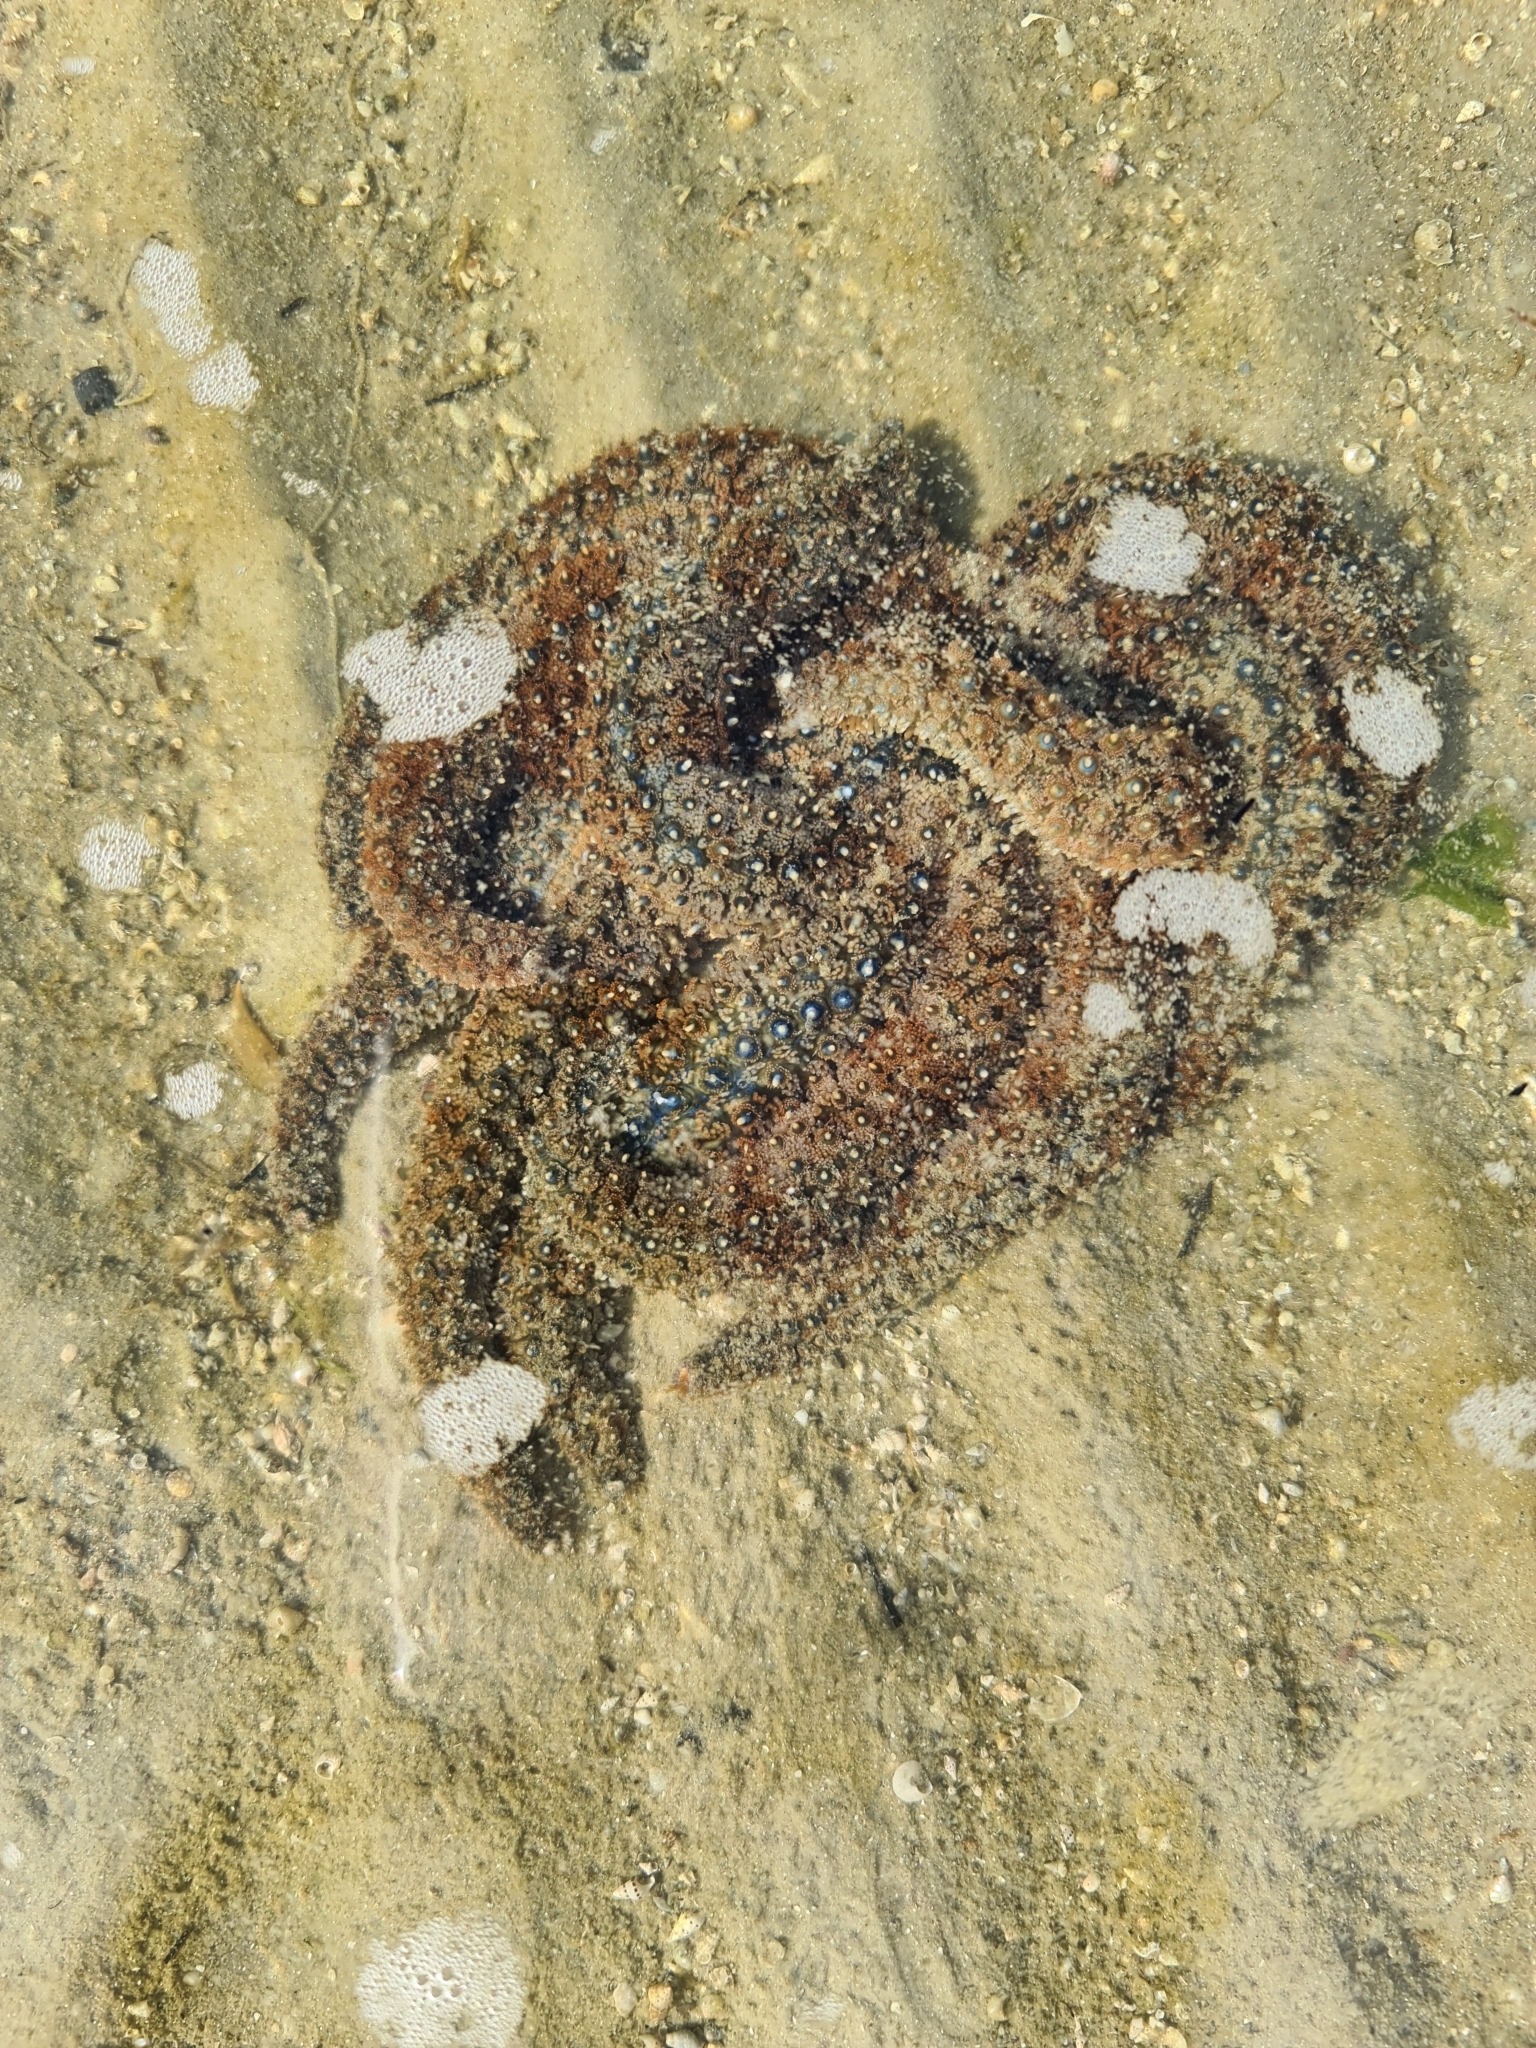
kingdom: Animalia
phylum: Echinodermata
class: Asteroidea
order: Forcipulatida
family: Asteriidae
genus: Coscinasterias
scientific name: Coscinasterias muricata
